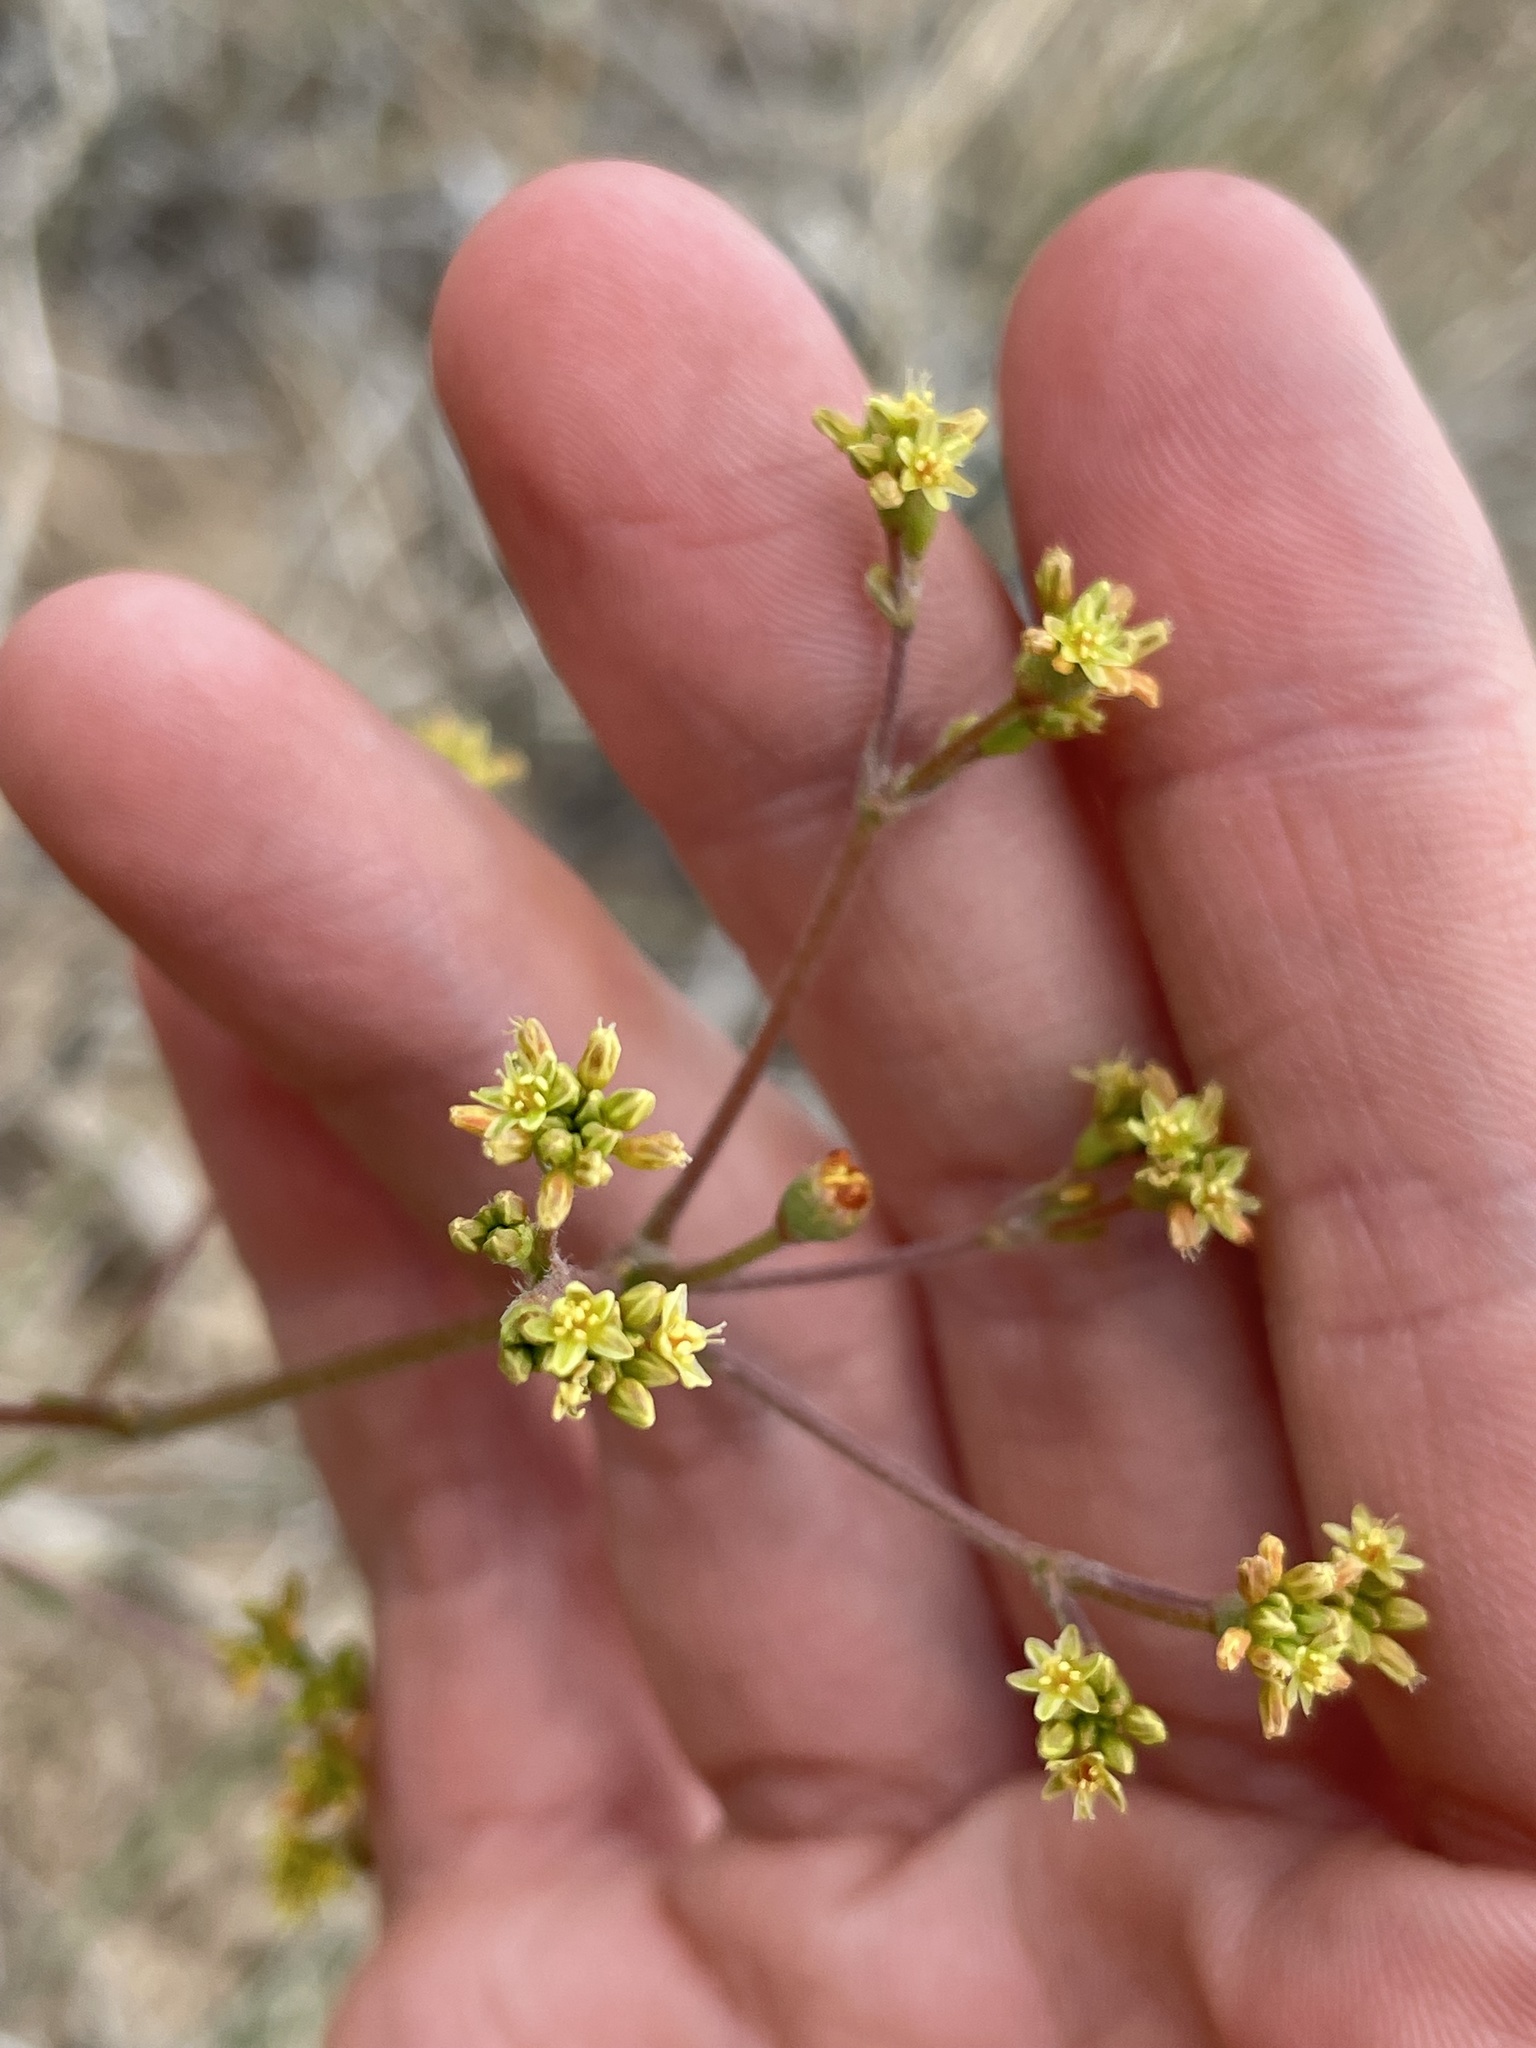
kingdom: Plantae
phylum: Tracheophyta
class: Magnoliopsida
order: Caryophyllales
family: Polygonaceae
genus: Eriogonum
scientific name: Eriogonum alatum
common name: Winged eriogonum
